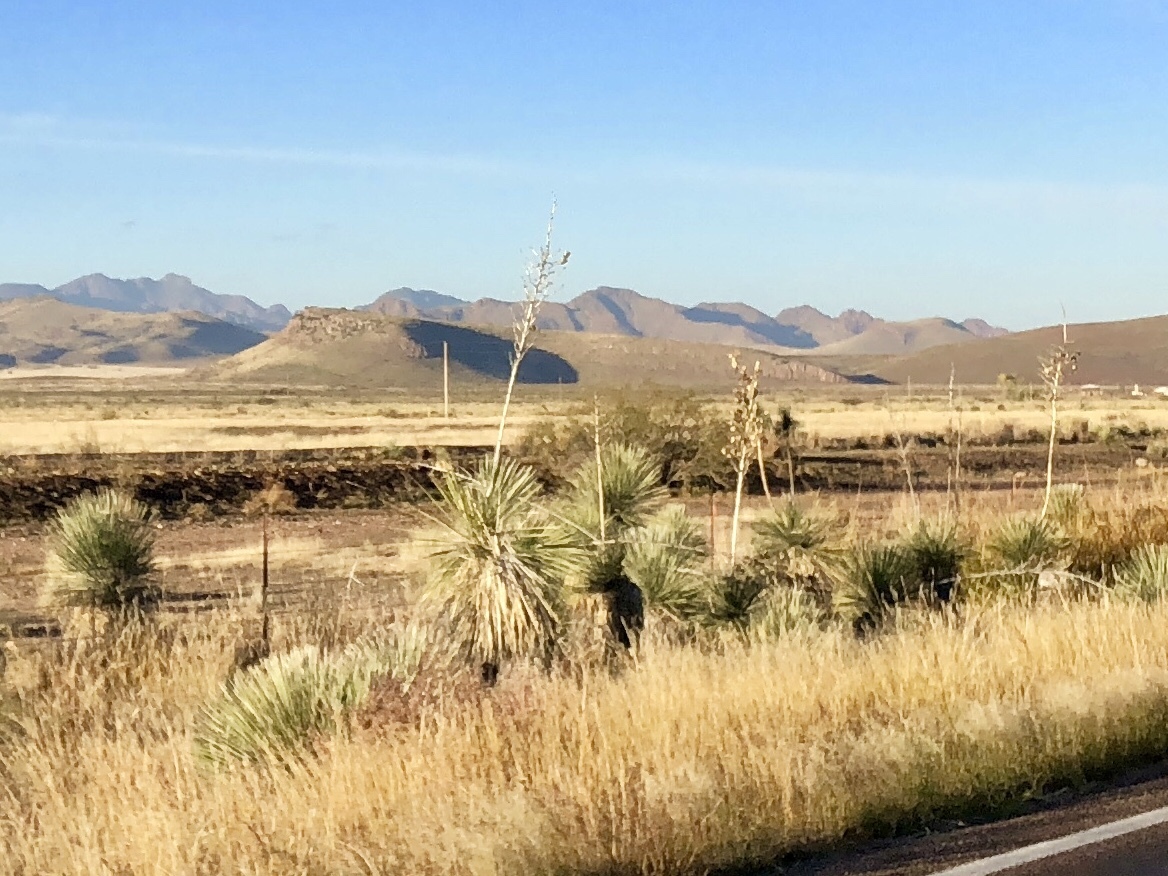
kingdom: Plantae
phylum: Tracheophyta
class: Liliopsida
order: Asparagales
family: Asparagaceae
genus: Yucca
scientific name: Yucca elata
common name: Palmella
